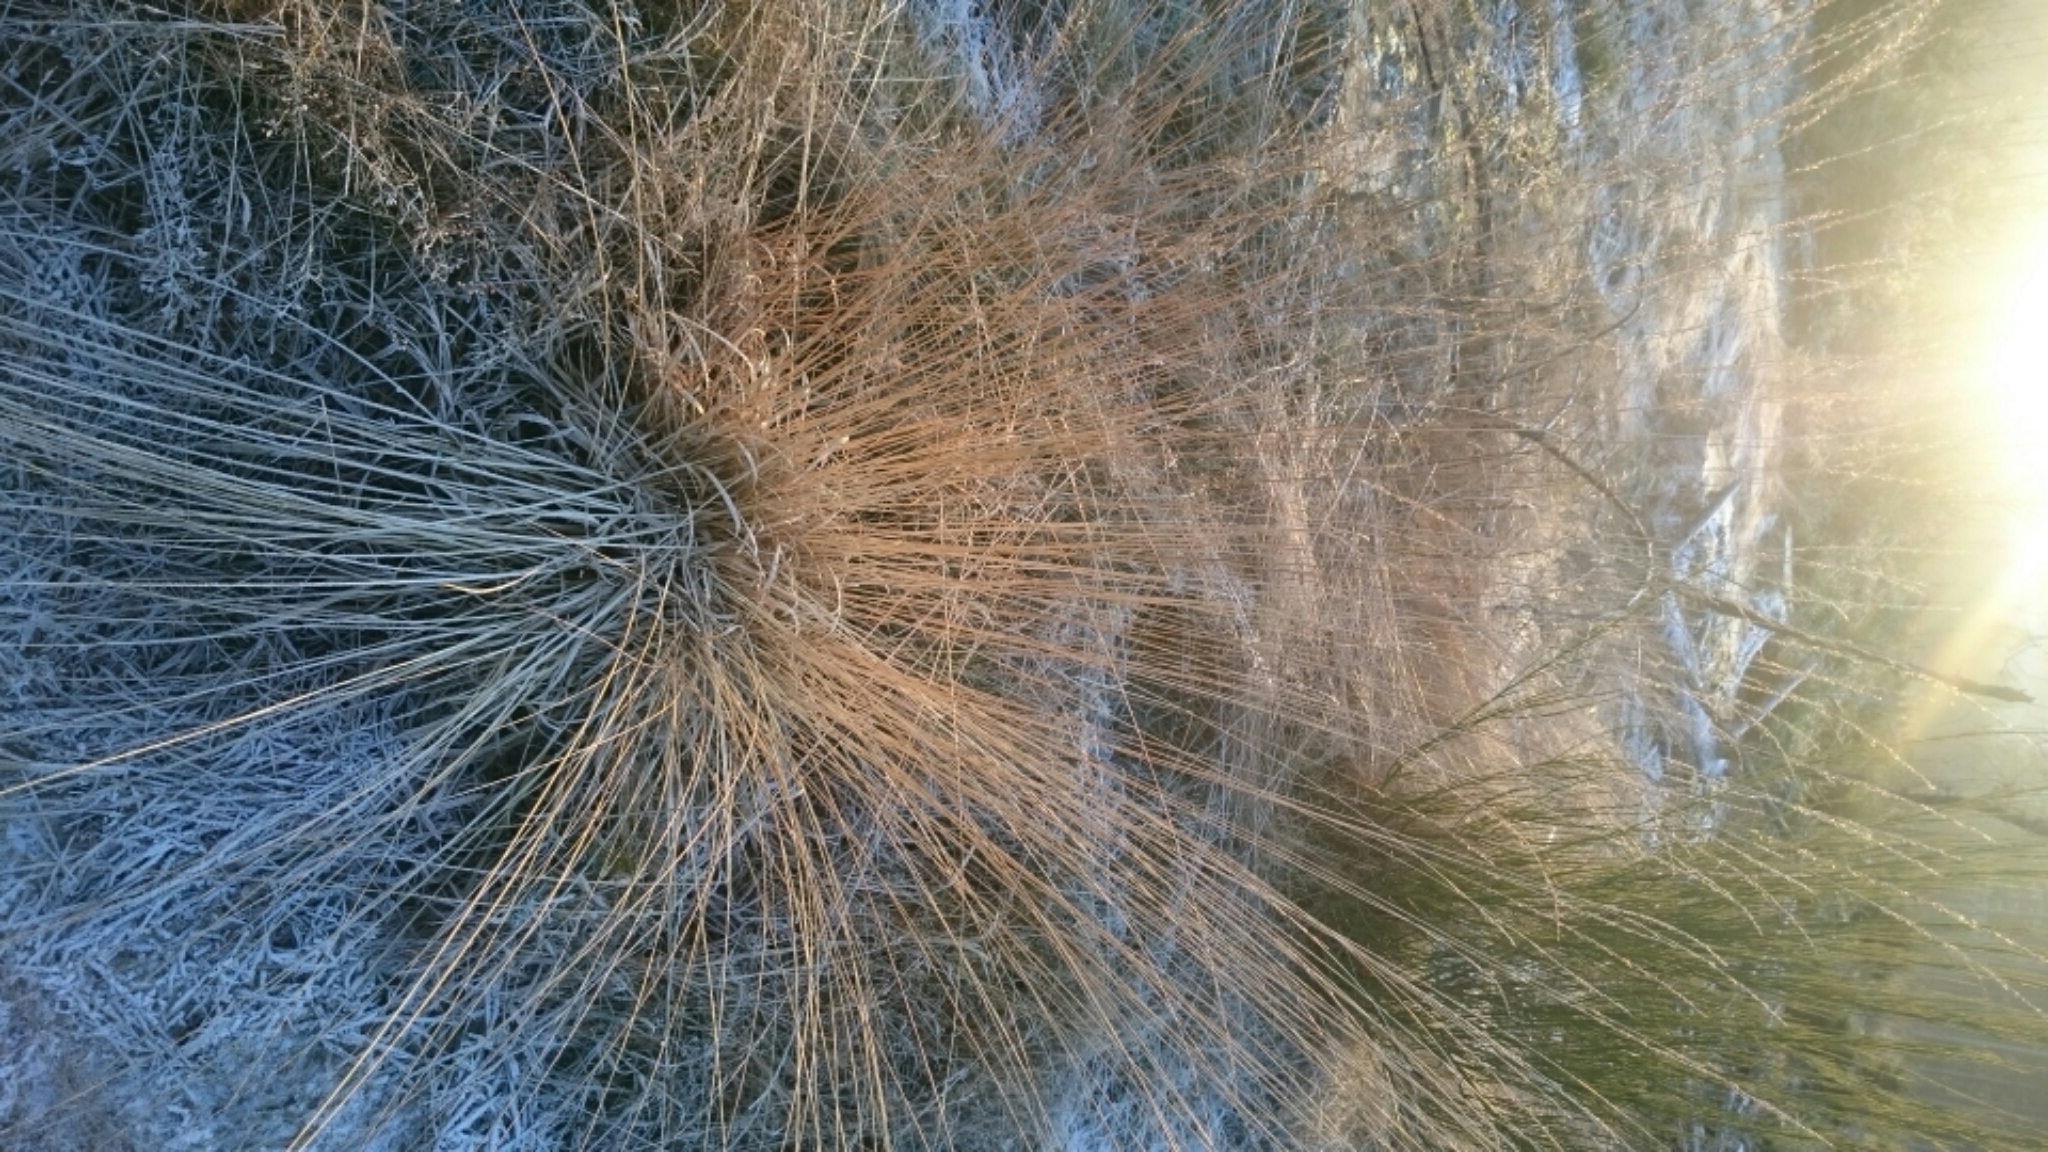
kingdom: Plantae
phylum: Tracheophyta
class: Liliopsida
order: Poales
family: Poaceae
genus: Molinia
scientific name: Molinia caerulea
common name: Purple moor-grass
